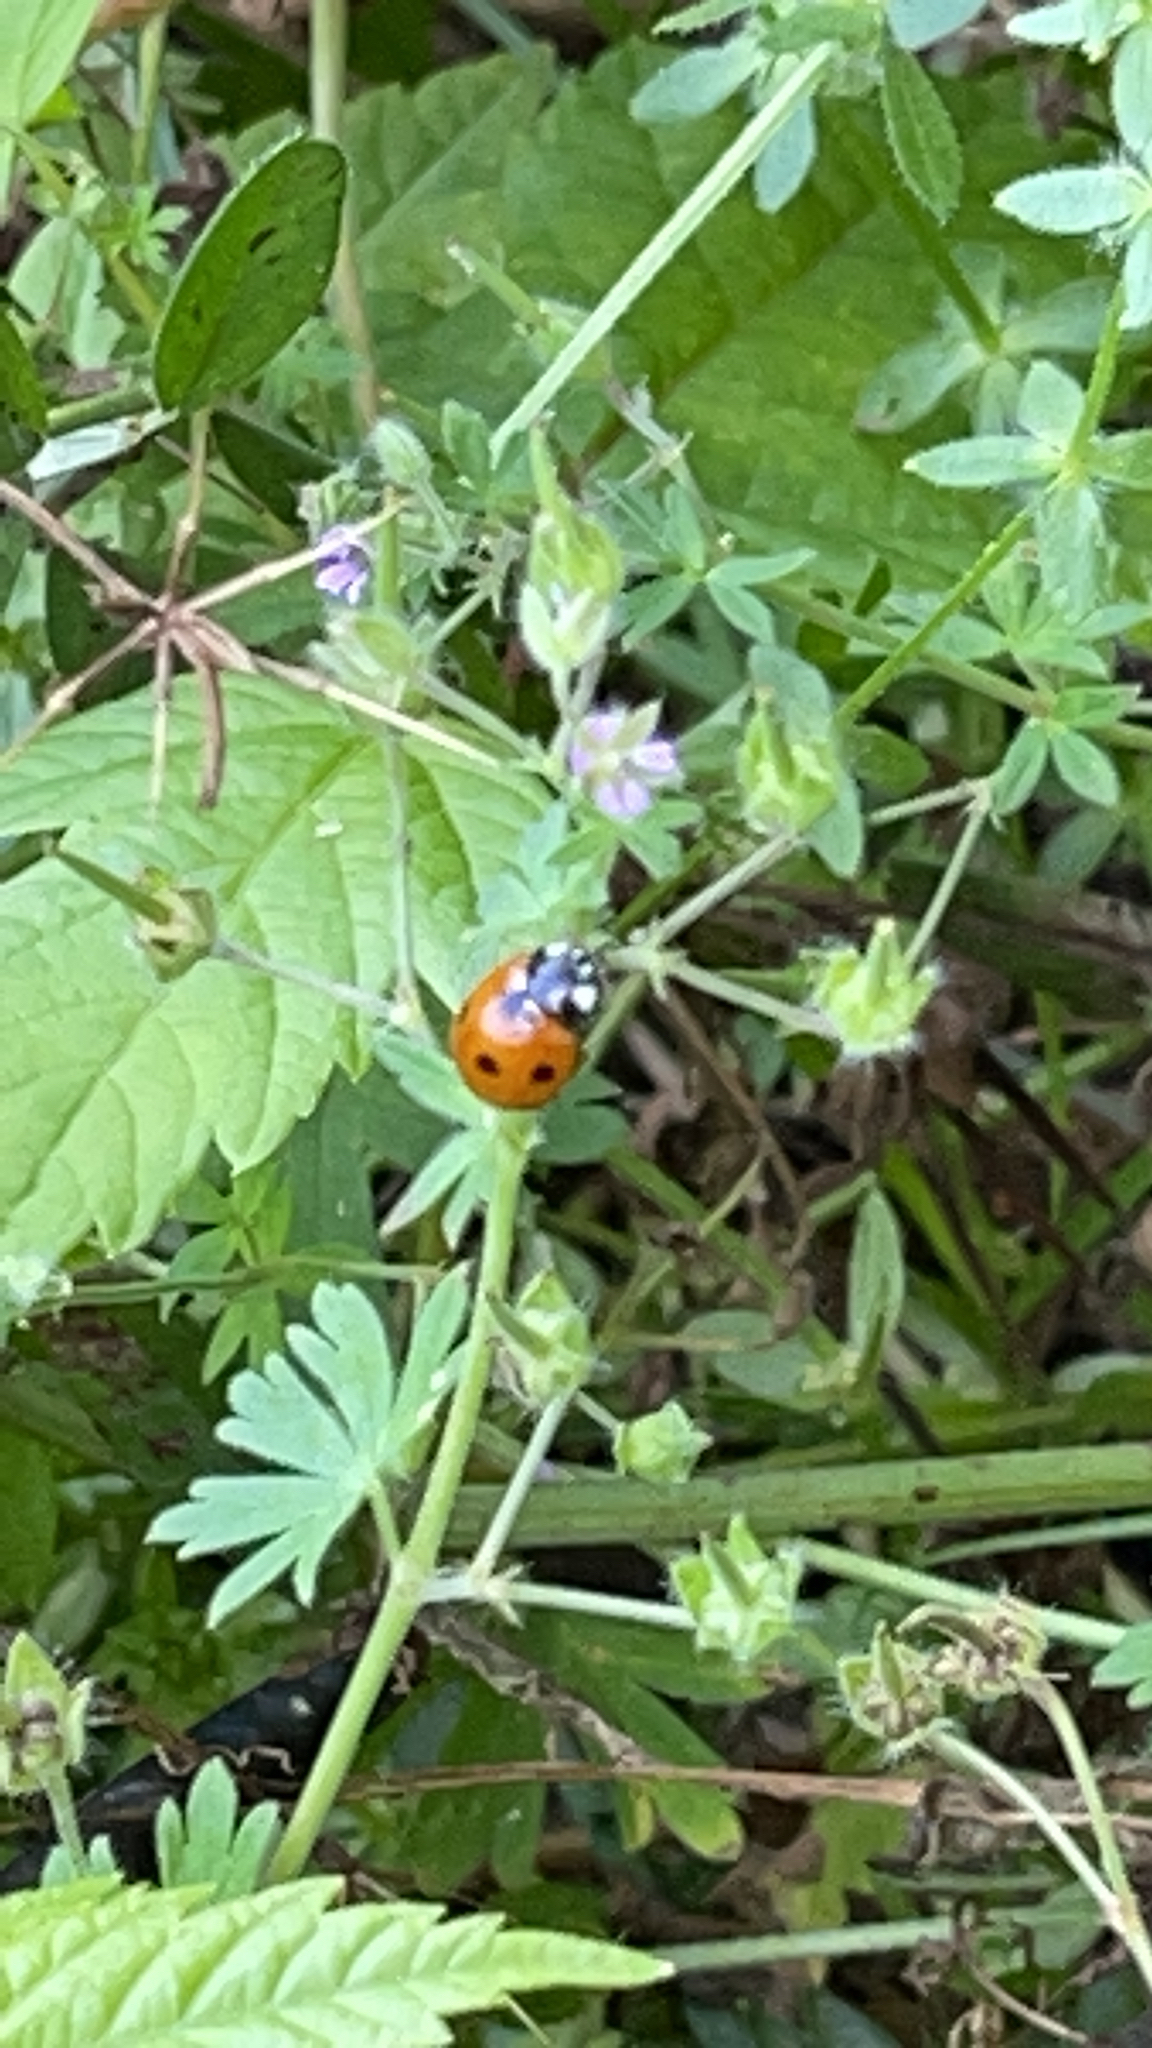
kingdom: Animalia
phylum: Arthropoda
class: Insecta
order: Coleoptera
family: Coccinellidae
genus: Coccinella
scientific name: Coccinella septempunctata
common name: Sevenspotted lady beetle
